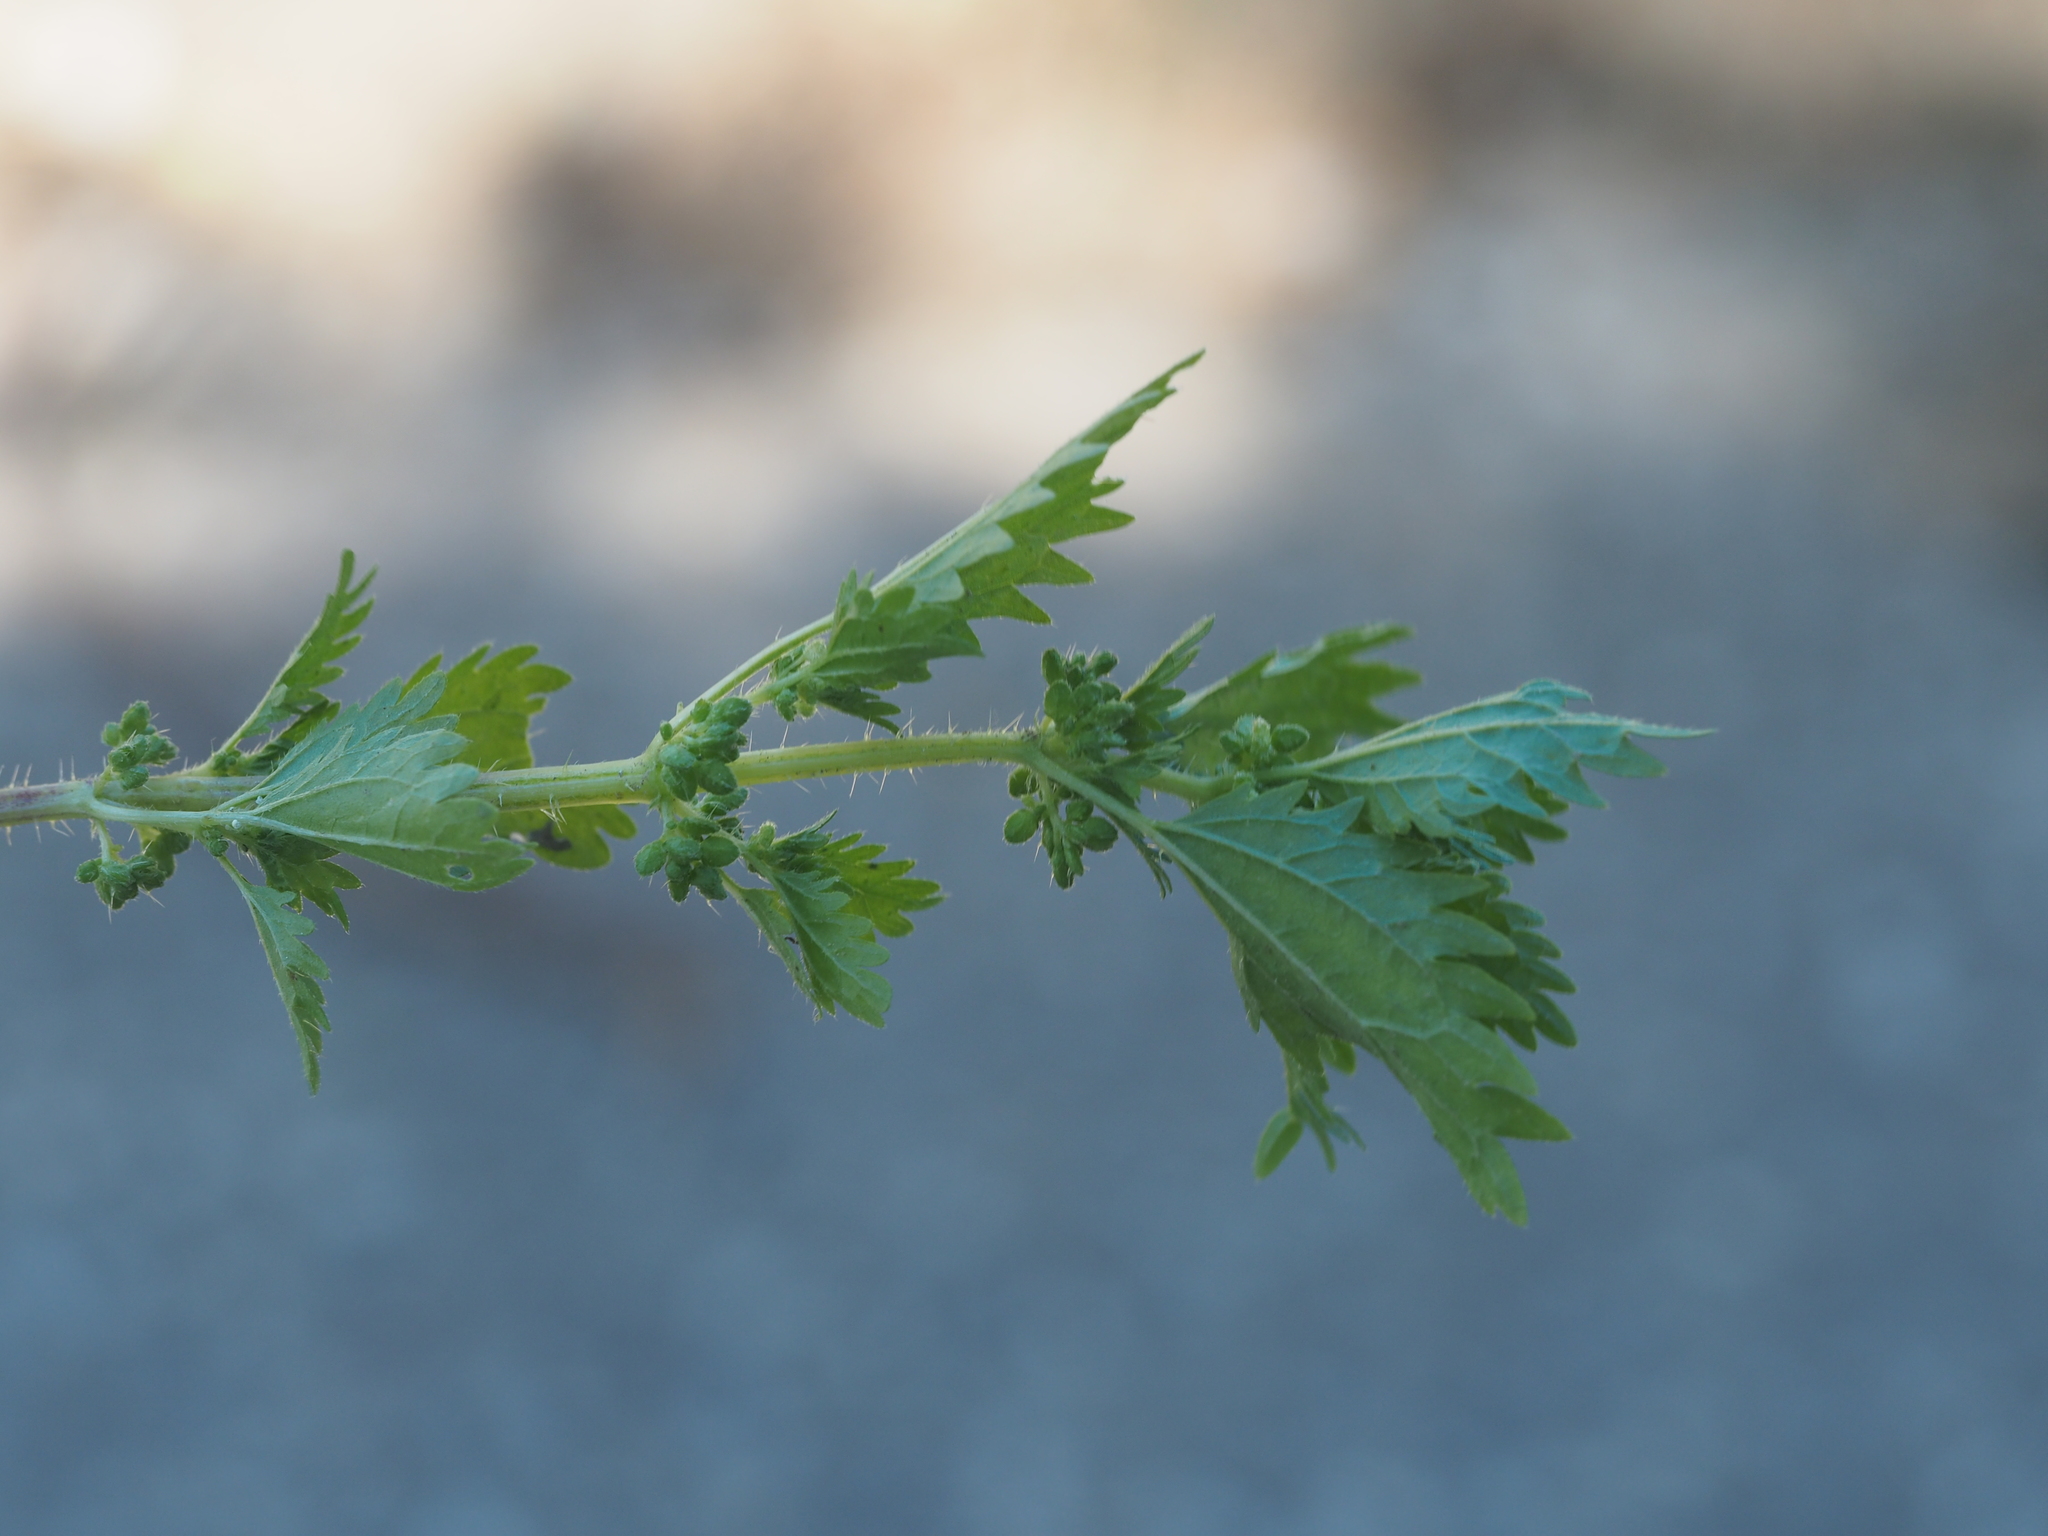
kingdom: Plantae
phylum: Tracheophyta
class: Magnoliopsida
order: Rosales
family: Urticaceae
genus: Urtica
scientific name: Urtica urens
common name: Dwarf nettle
